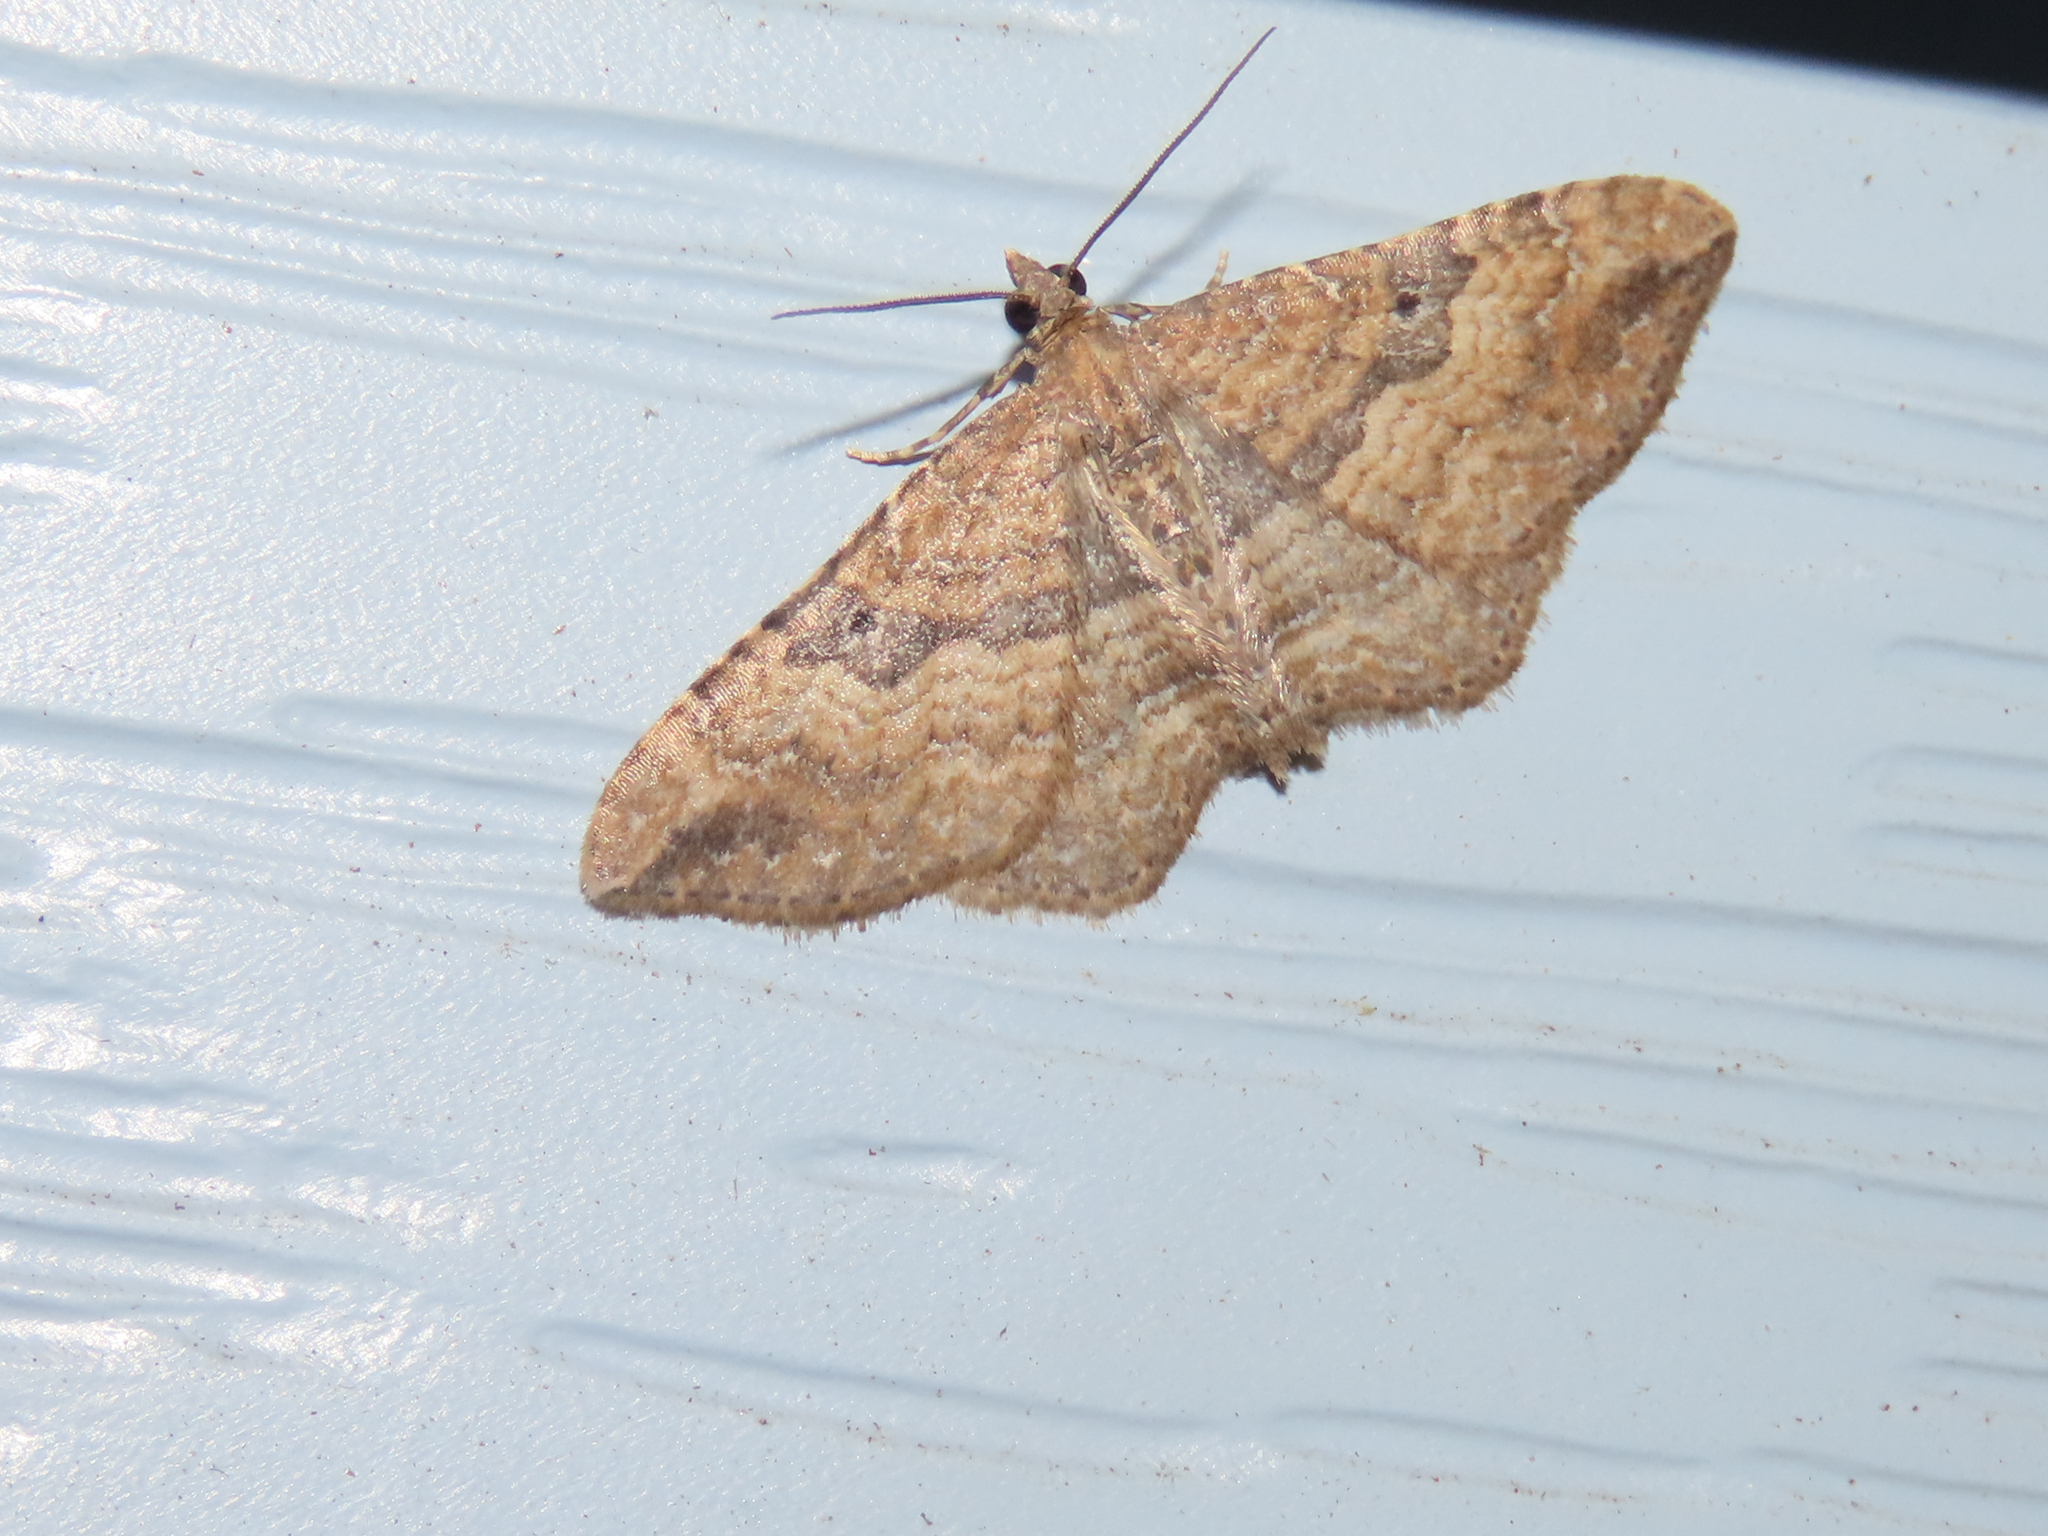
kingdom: Animalia
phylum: Arthropoda
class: Insecta
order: Lepidoptera
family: Geometridae
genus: Orthonama
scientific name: Orthonama obstipata
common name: The gem
